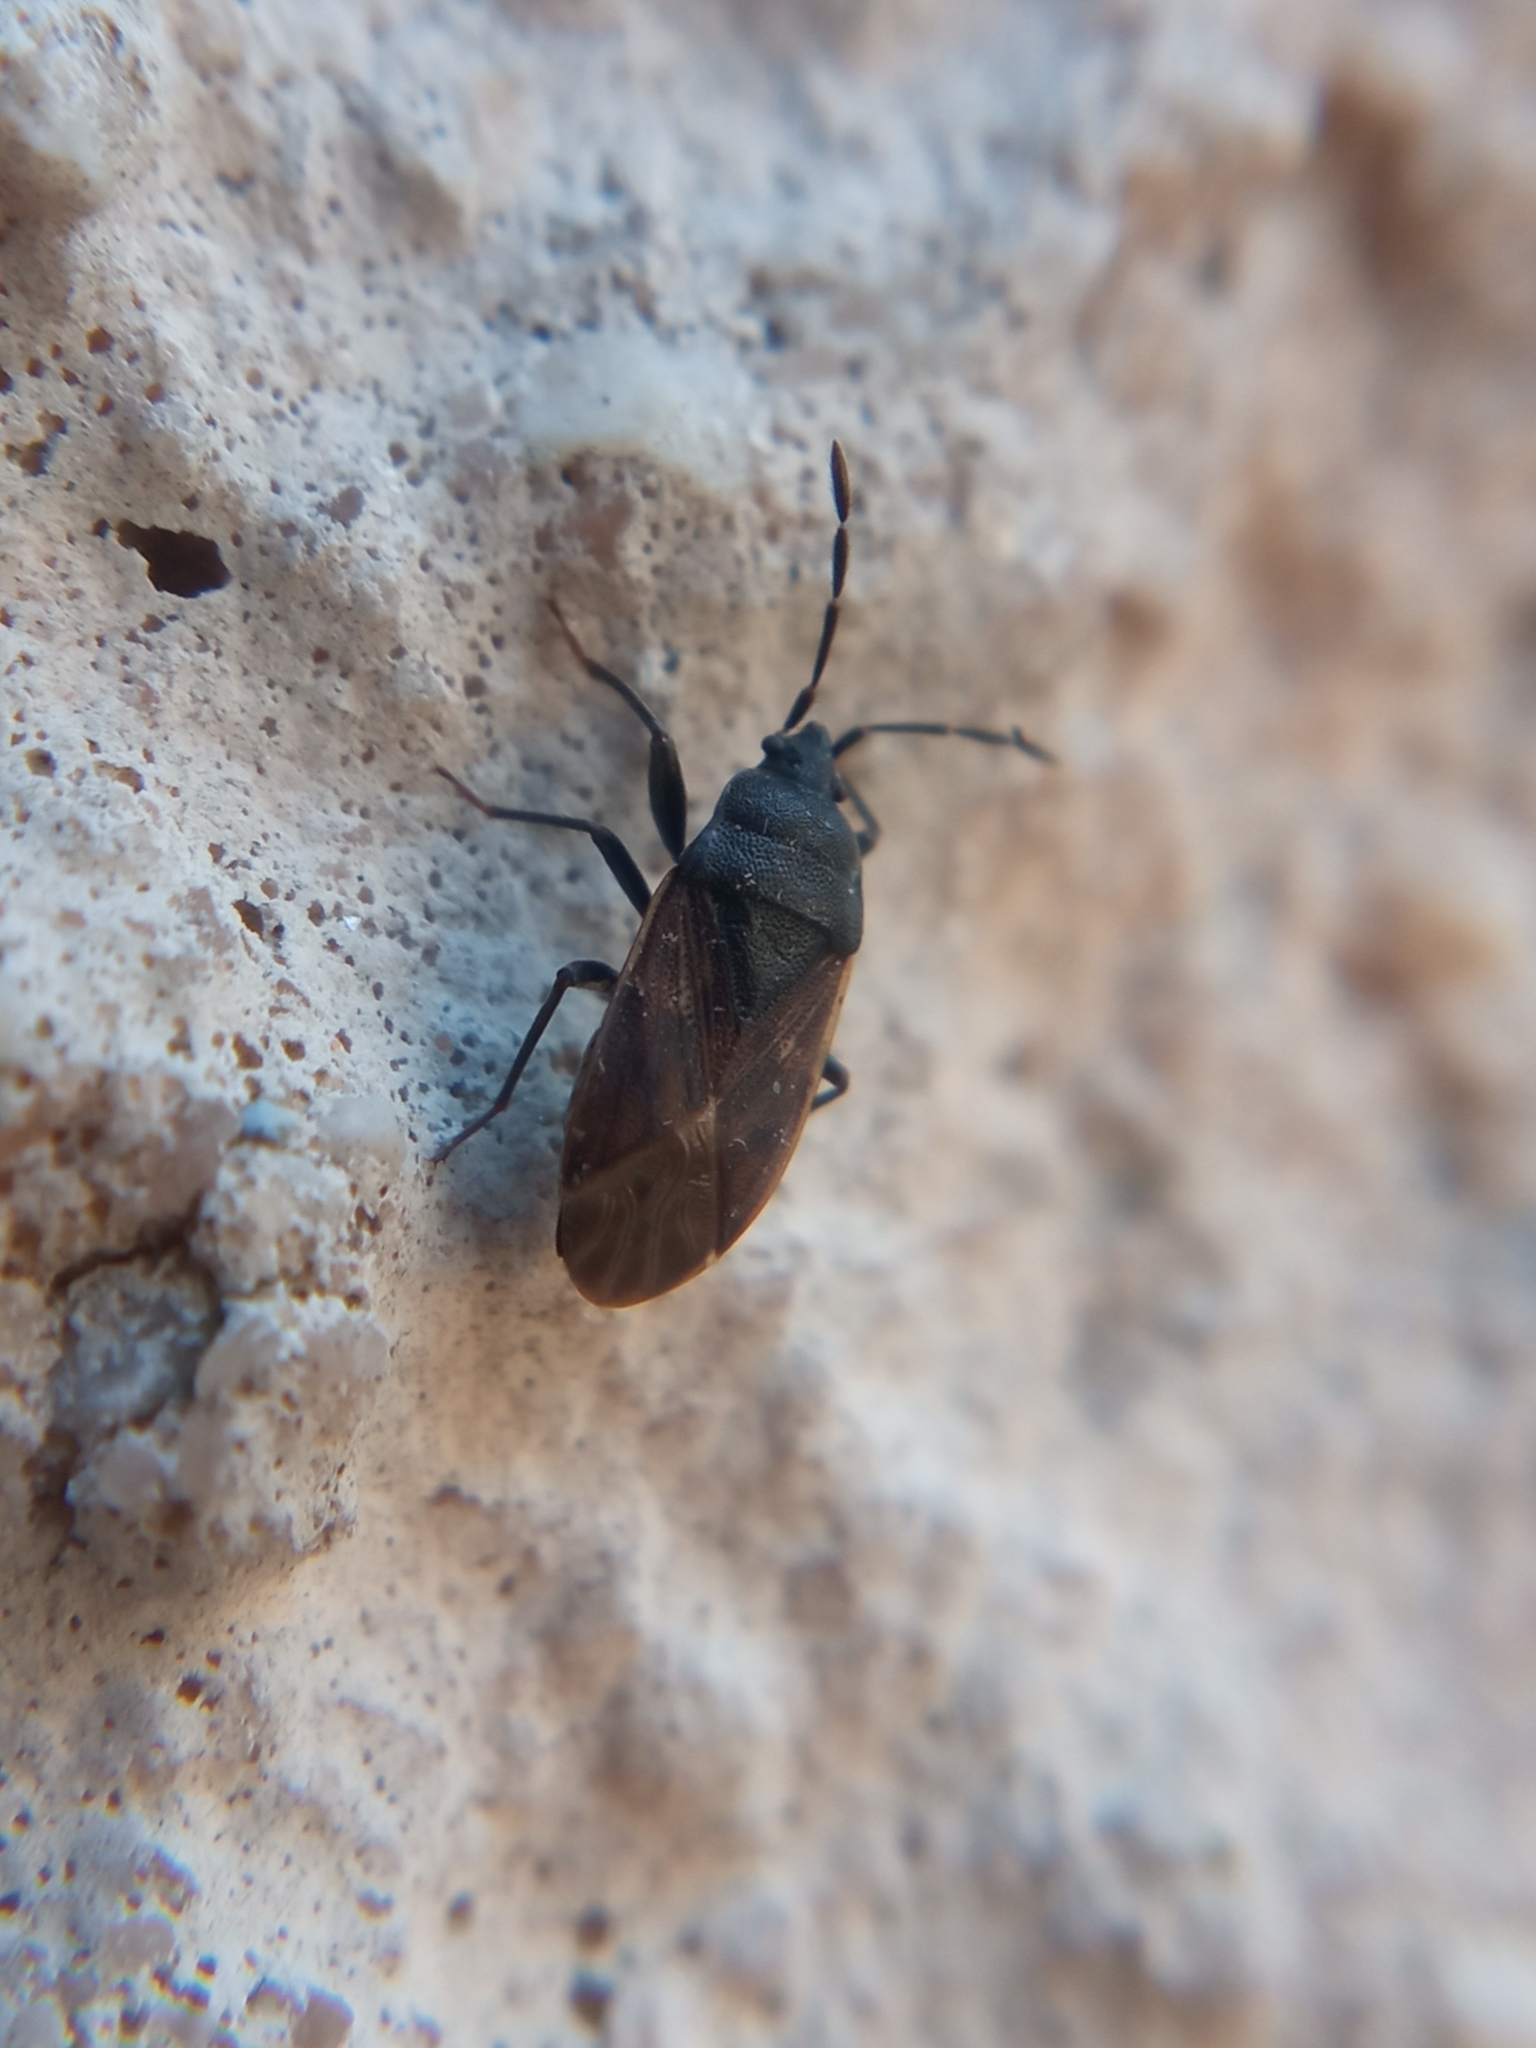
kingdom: Animalia
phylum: Arthropoda
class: Insecta
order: Hemiptera
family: Rhyparochromidae
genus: Drymus
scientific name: Drymus sylvaticus
